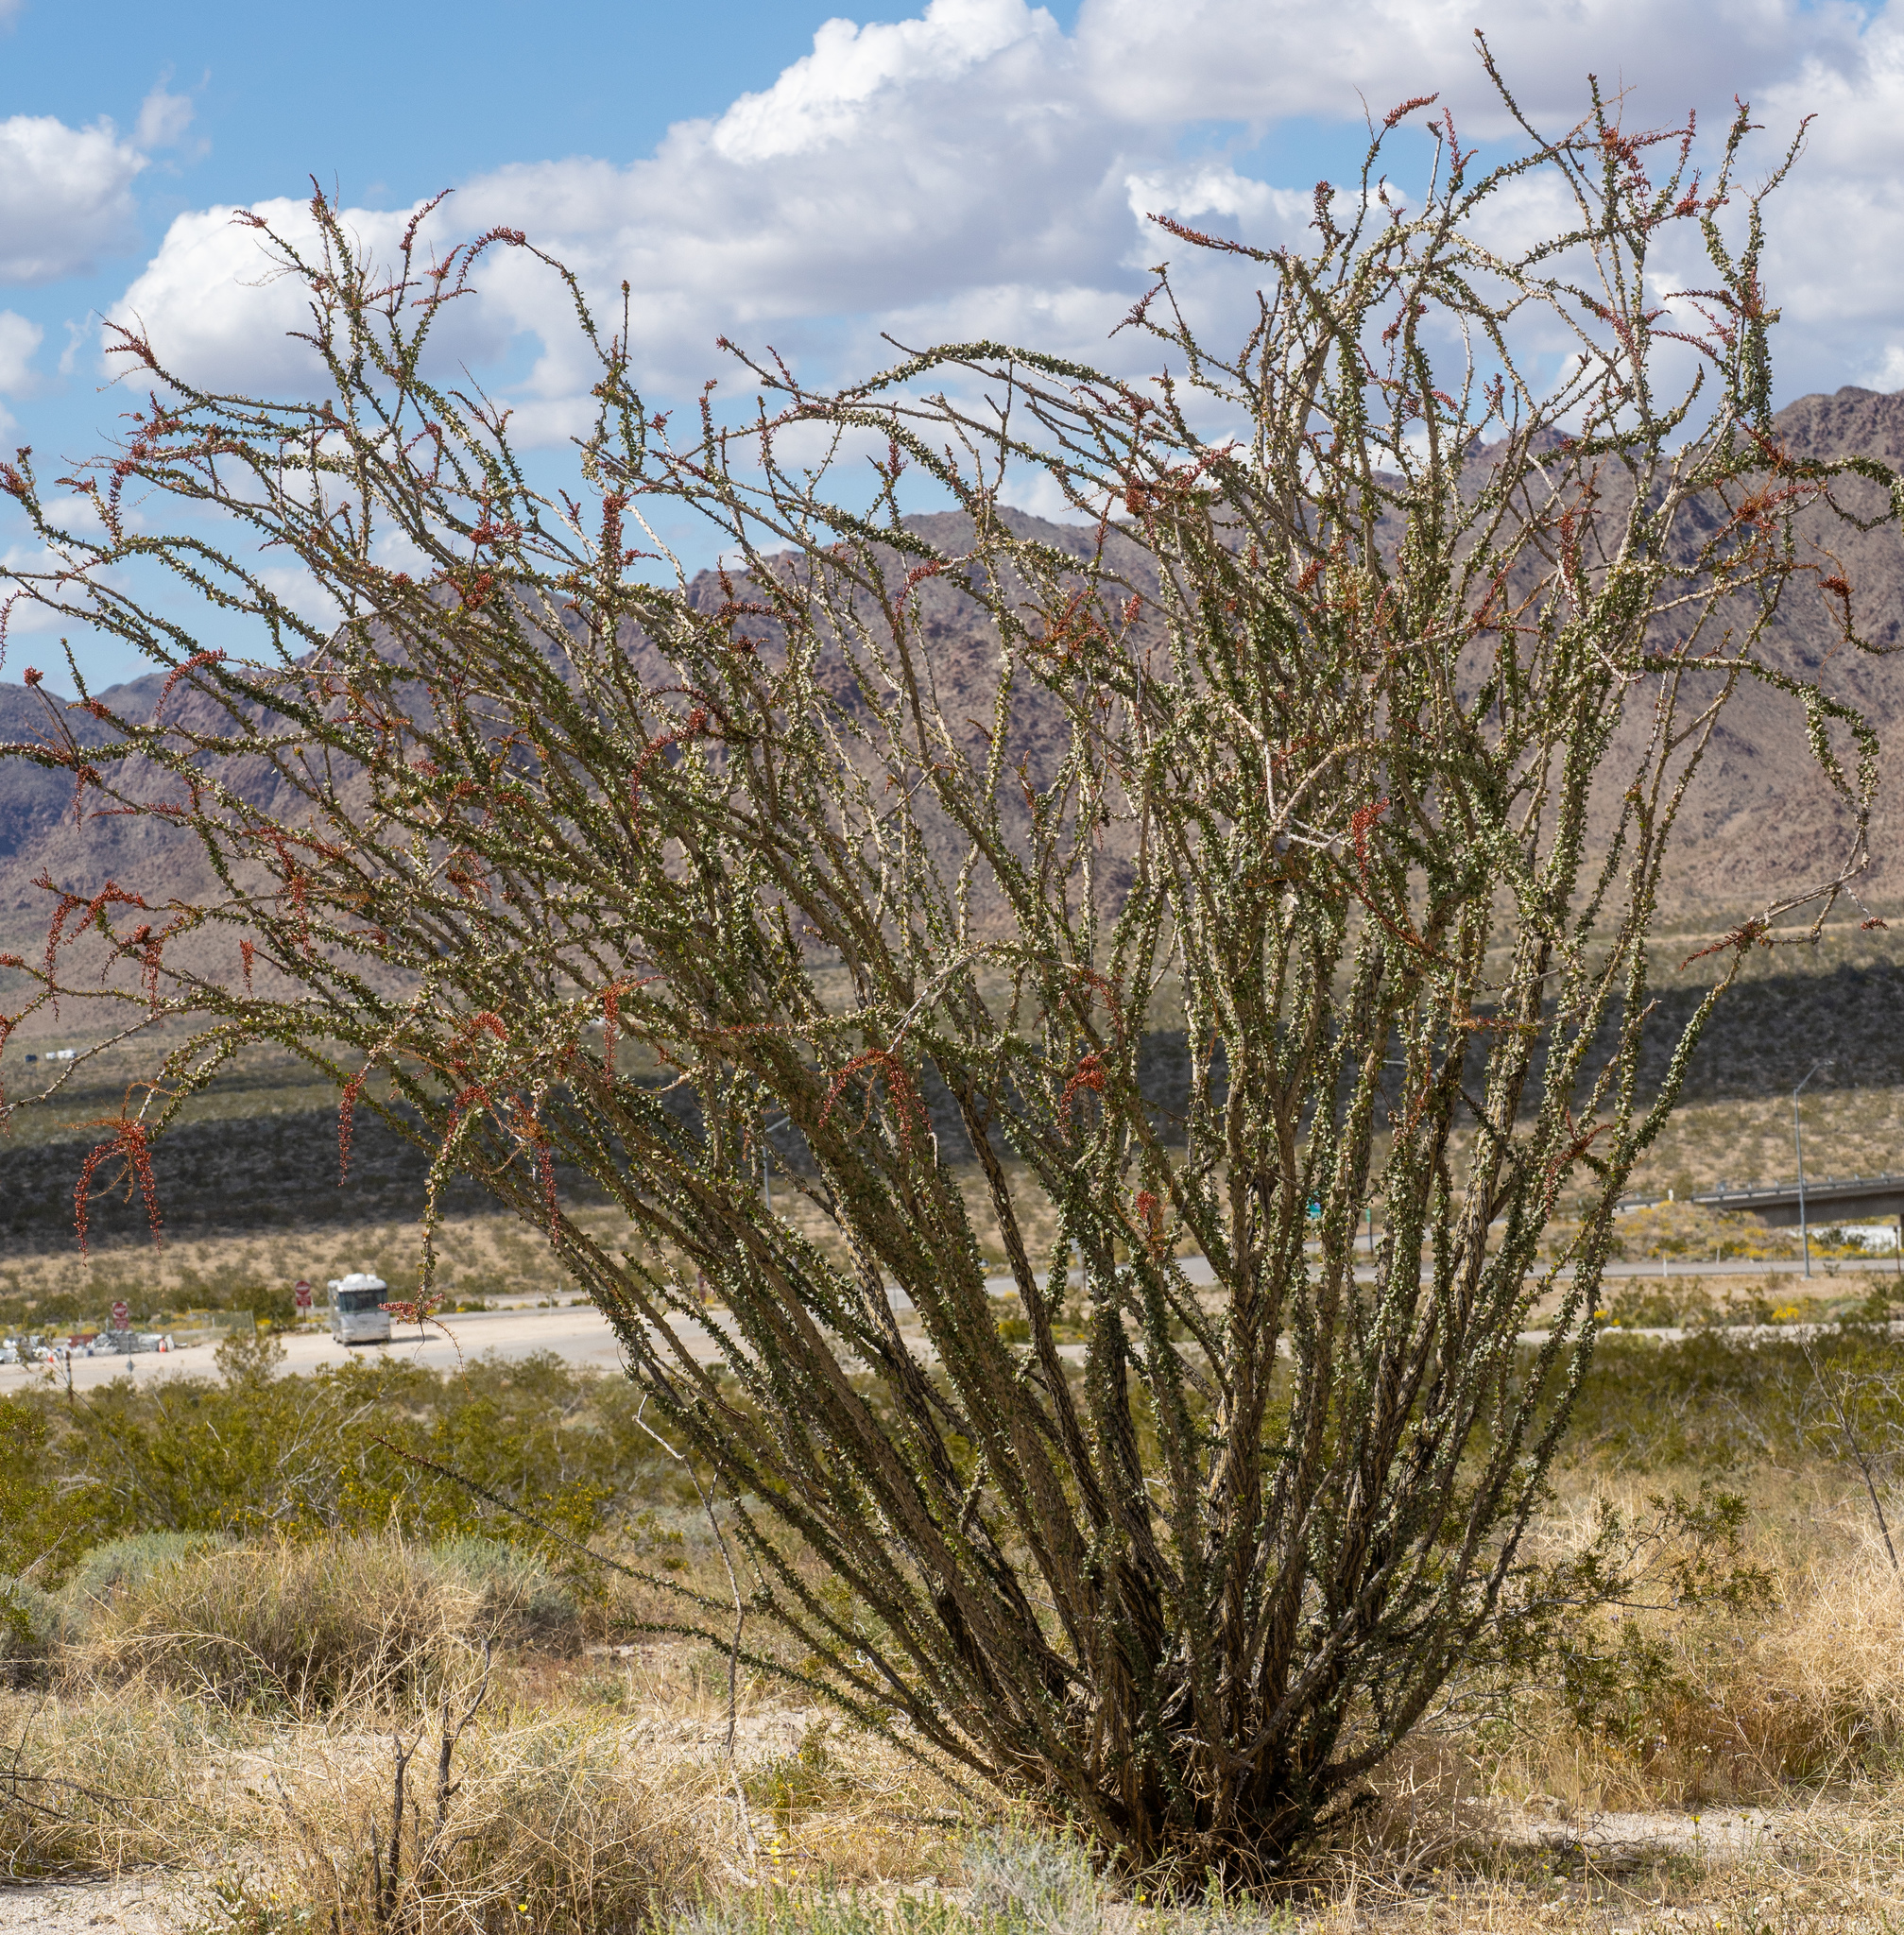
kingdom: Plantae
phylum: Tracheophyta
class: Magnoliopsida
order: Ericales
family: Fouquieriaceae
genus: Fouquieria
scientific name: Fouquieria splendens
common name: Vine-cactus
